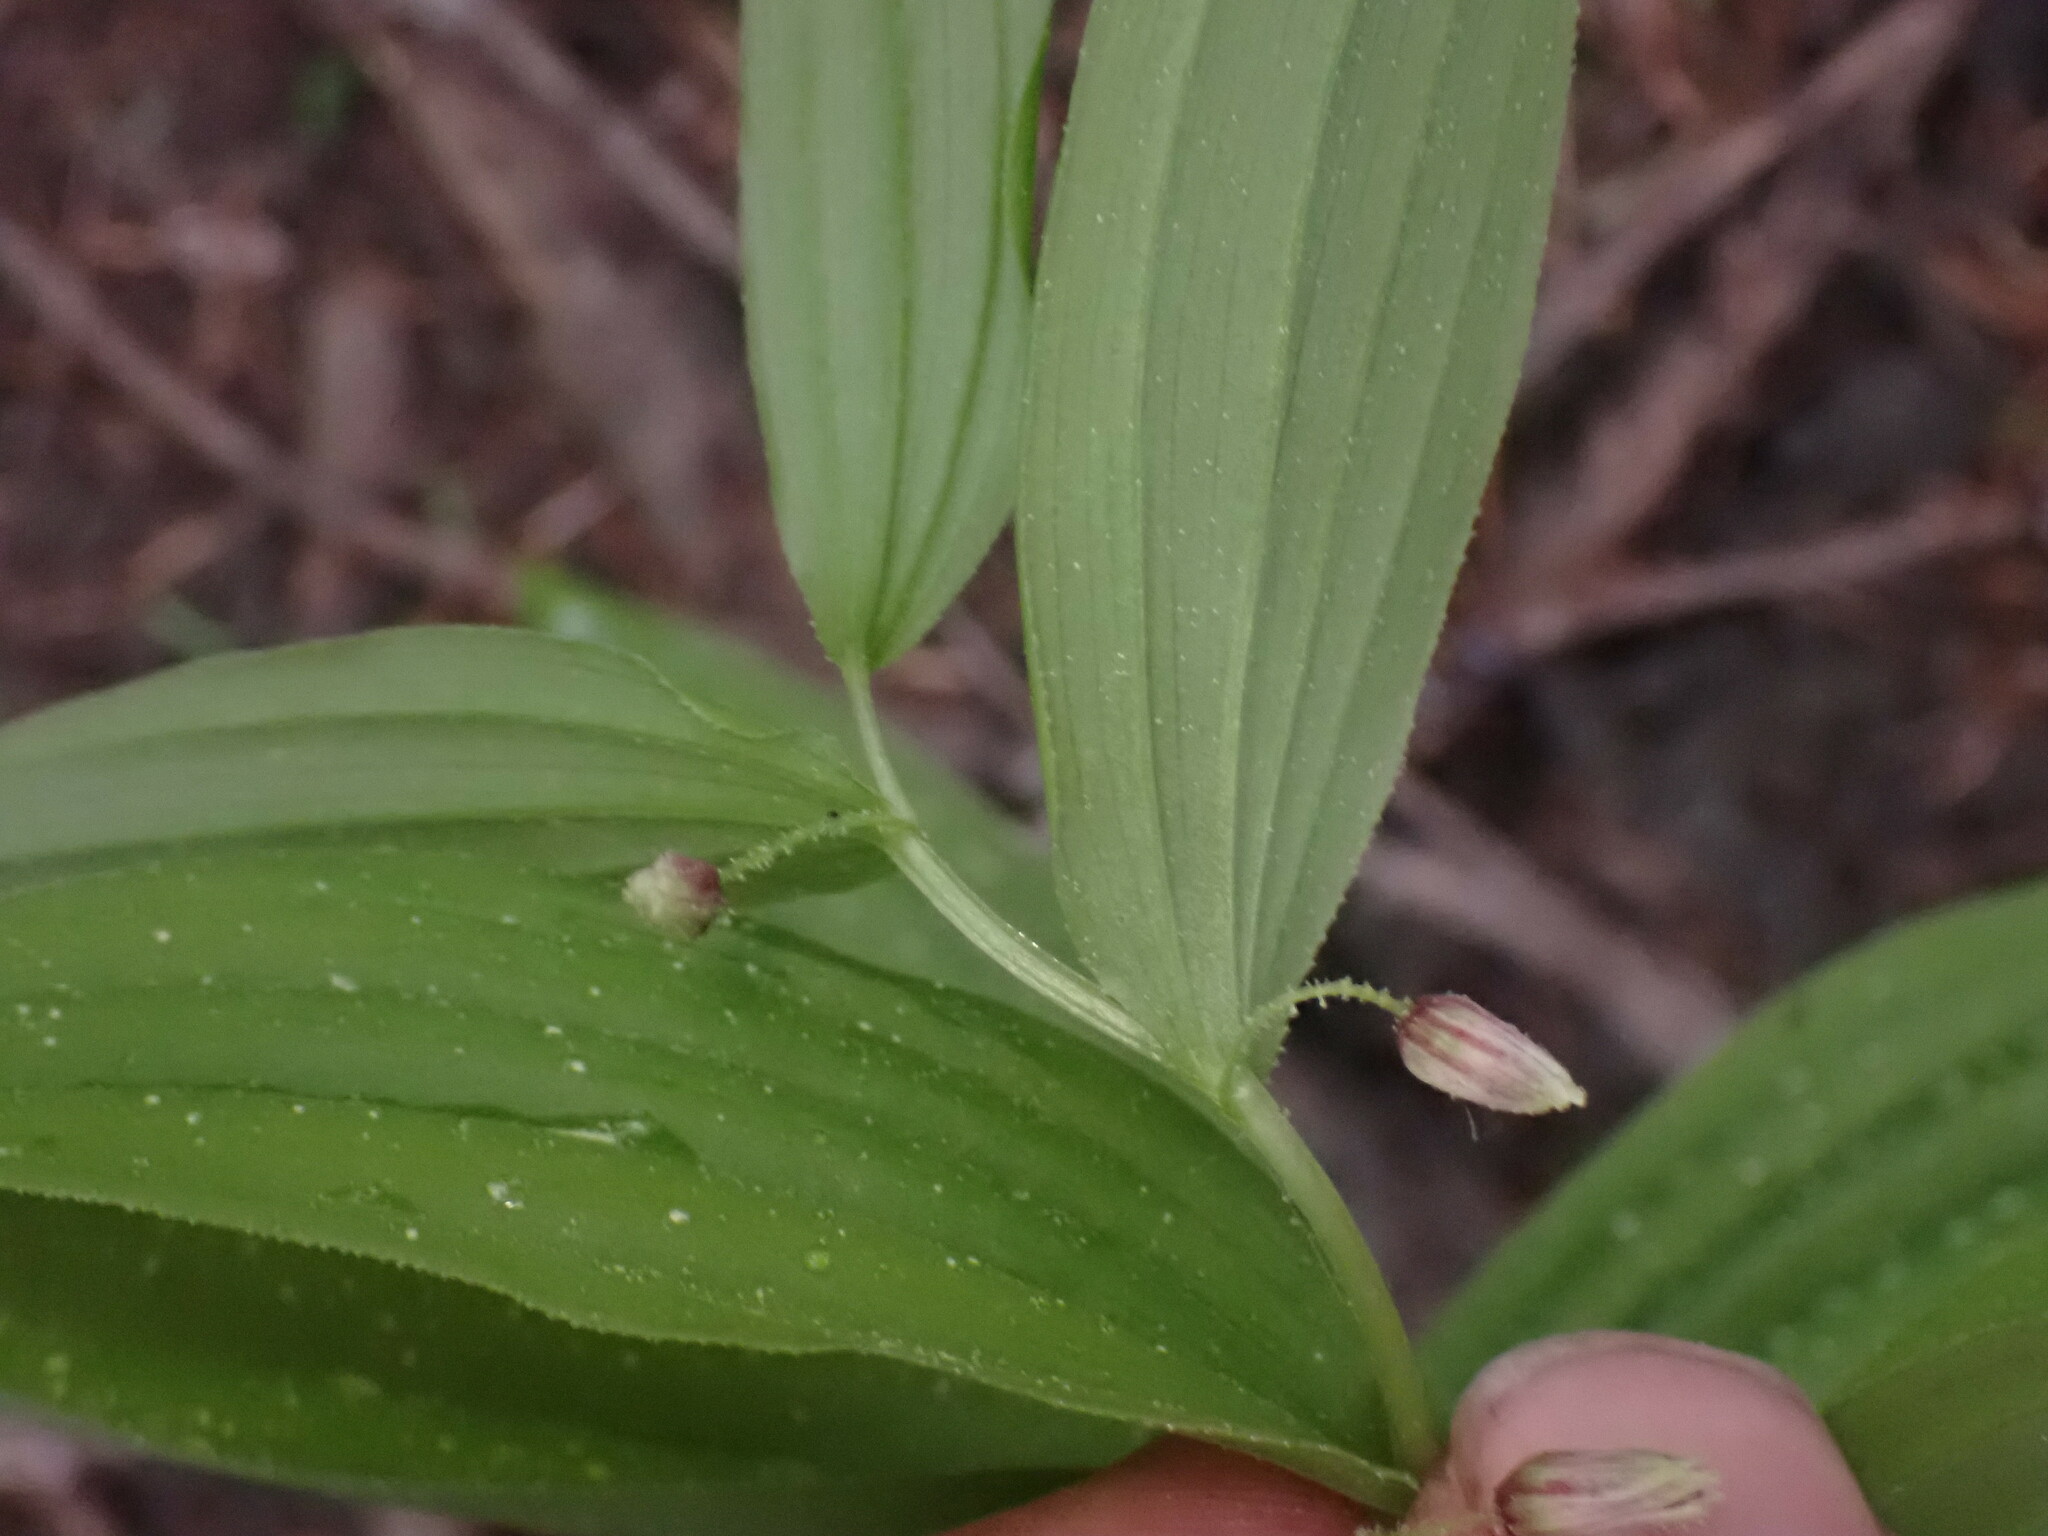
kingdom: Plantae
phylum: Tracheophyta
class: Liliopsida
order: Liliales
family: Liliaceae
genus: Streptopus
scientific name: Streptopus lanceolatus
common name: Rose mandarin
